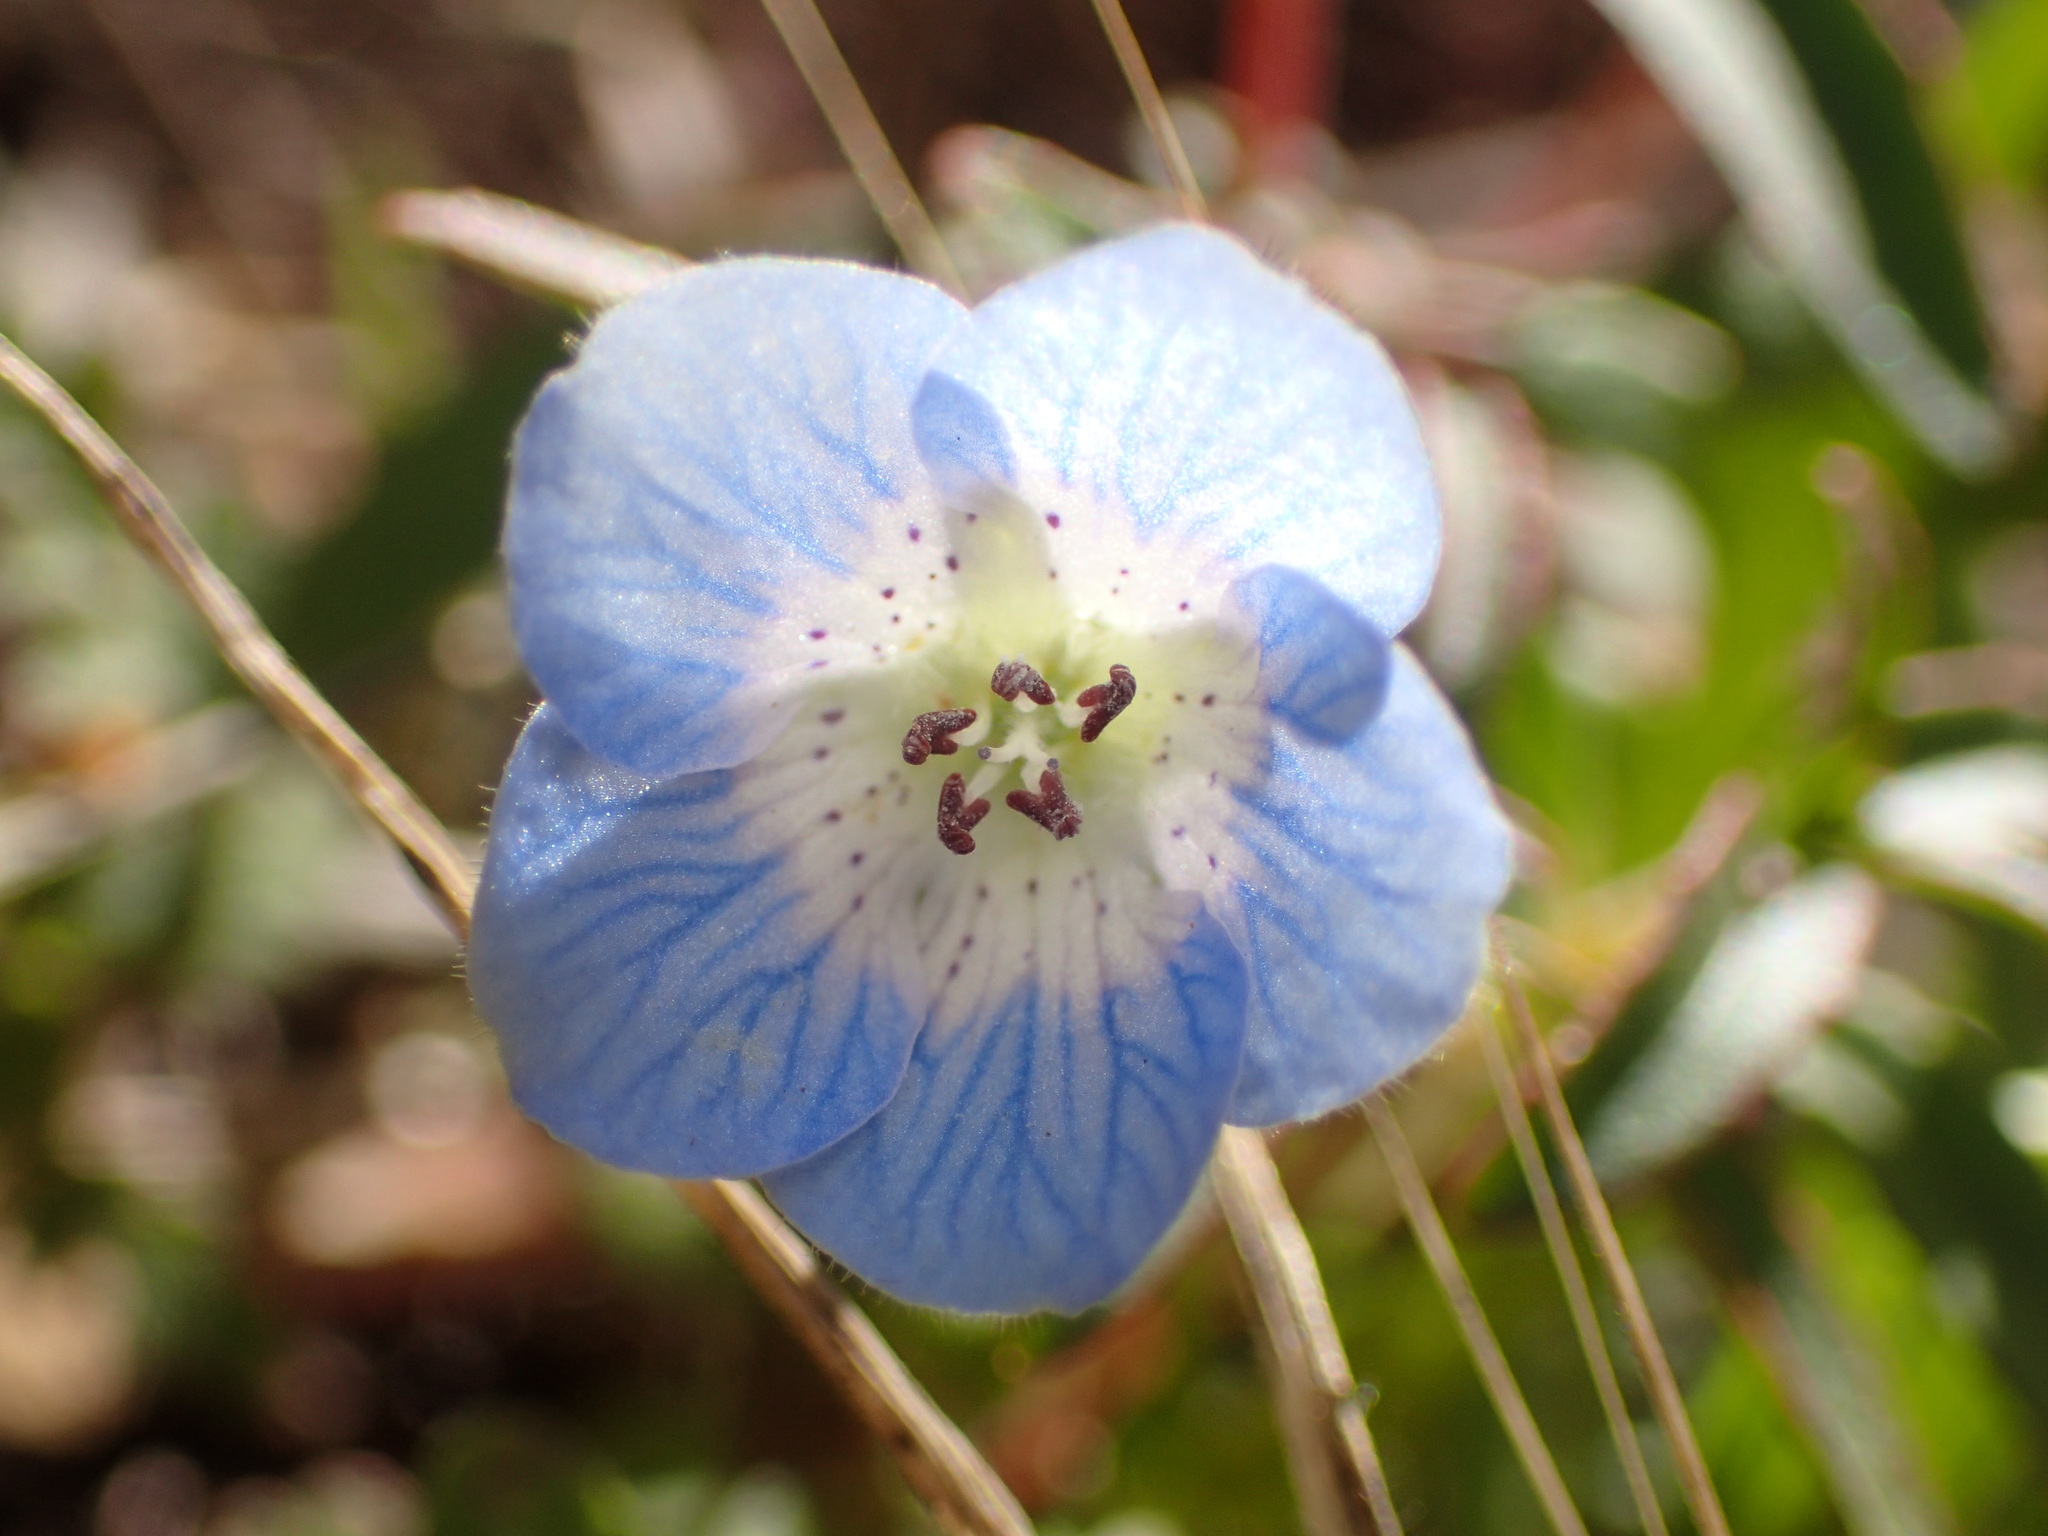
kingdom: Plantae
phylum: Tracheophyta
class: Magnoliopsida
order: Boraginales
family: Hydrophyllaceae
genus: Nemophila
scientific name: Nemophila menziesii
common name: Baby's-blue-eyes
